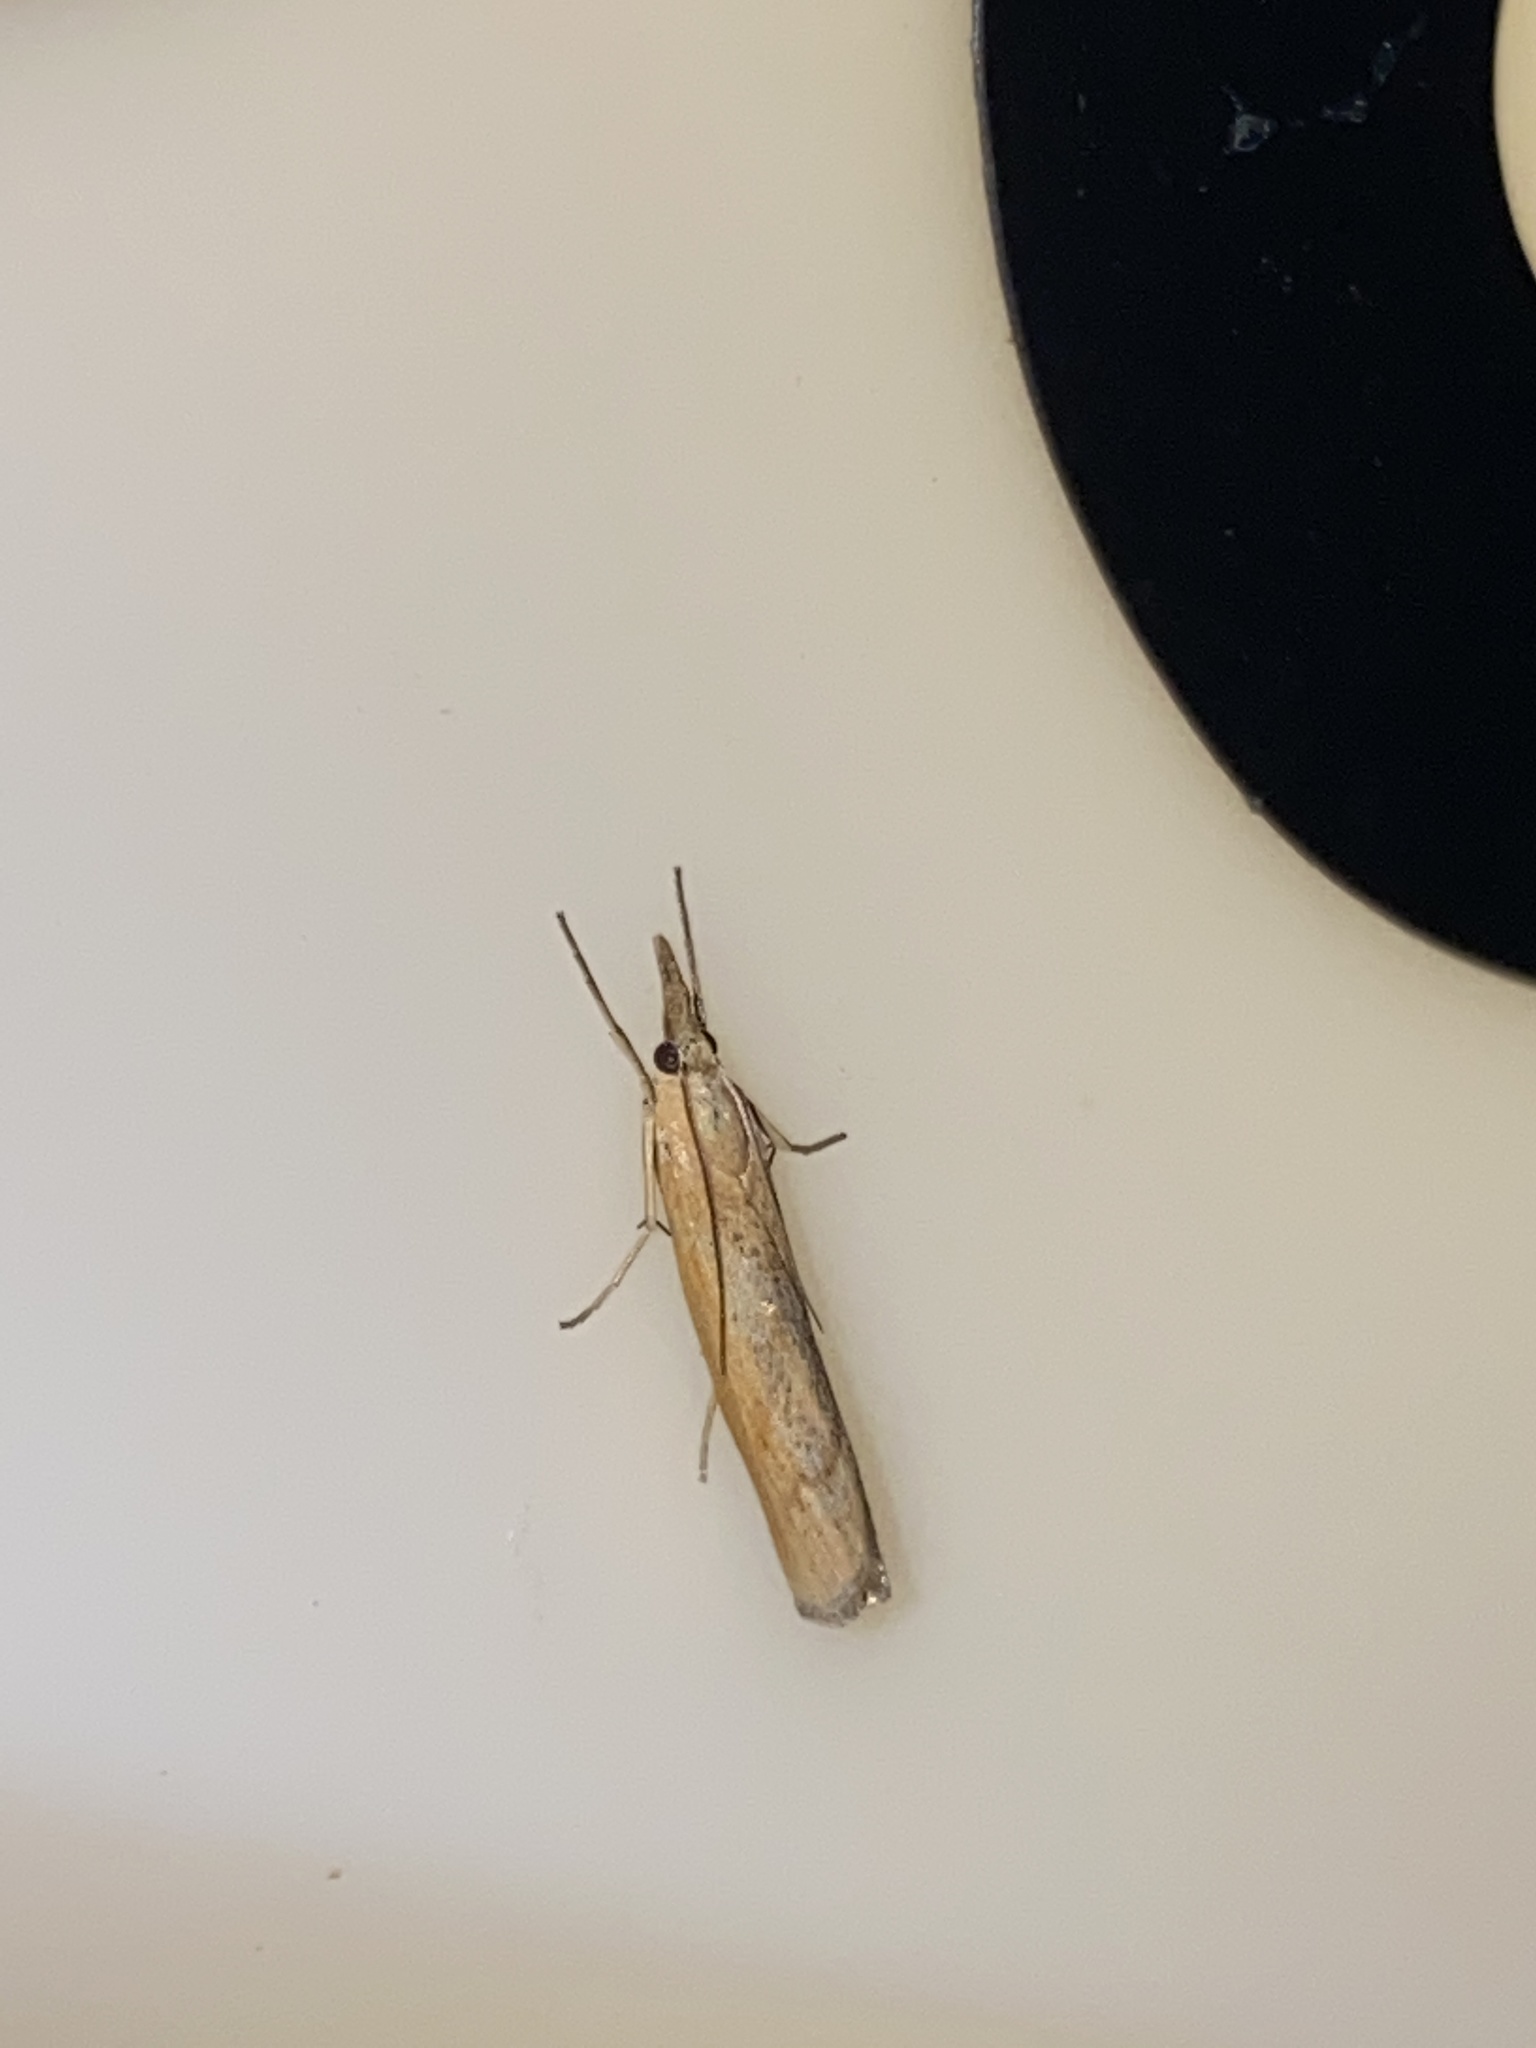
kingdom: Animalia
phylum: Arthropoda
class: Insecta
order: Lepidoptera
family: Crambidae
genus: Pediasia
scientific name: Pediasia luteella
